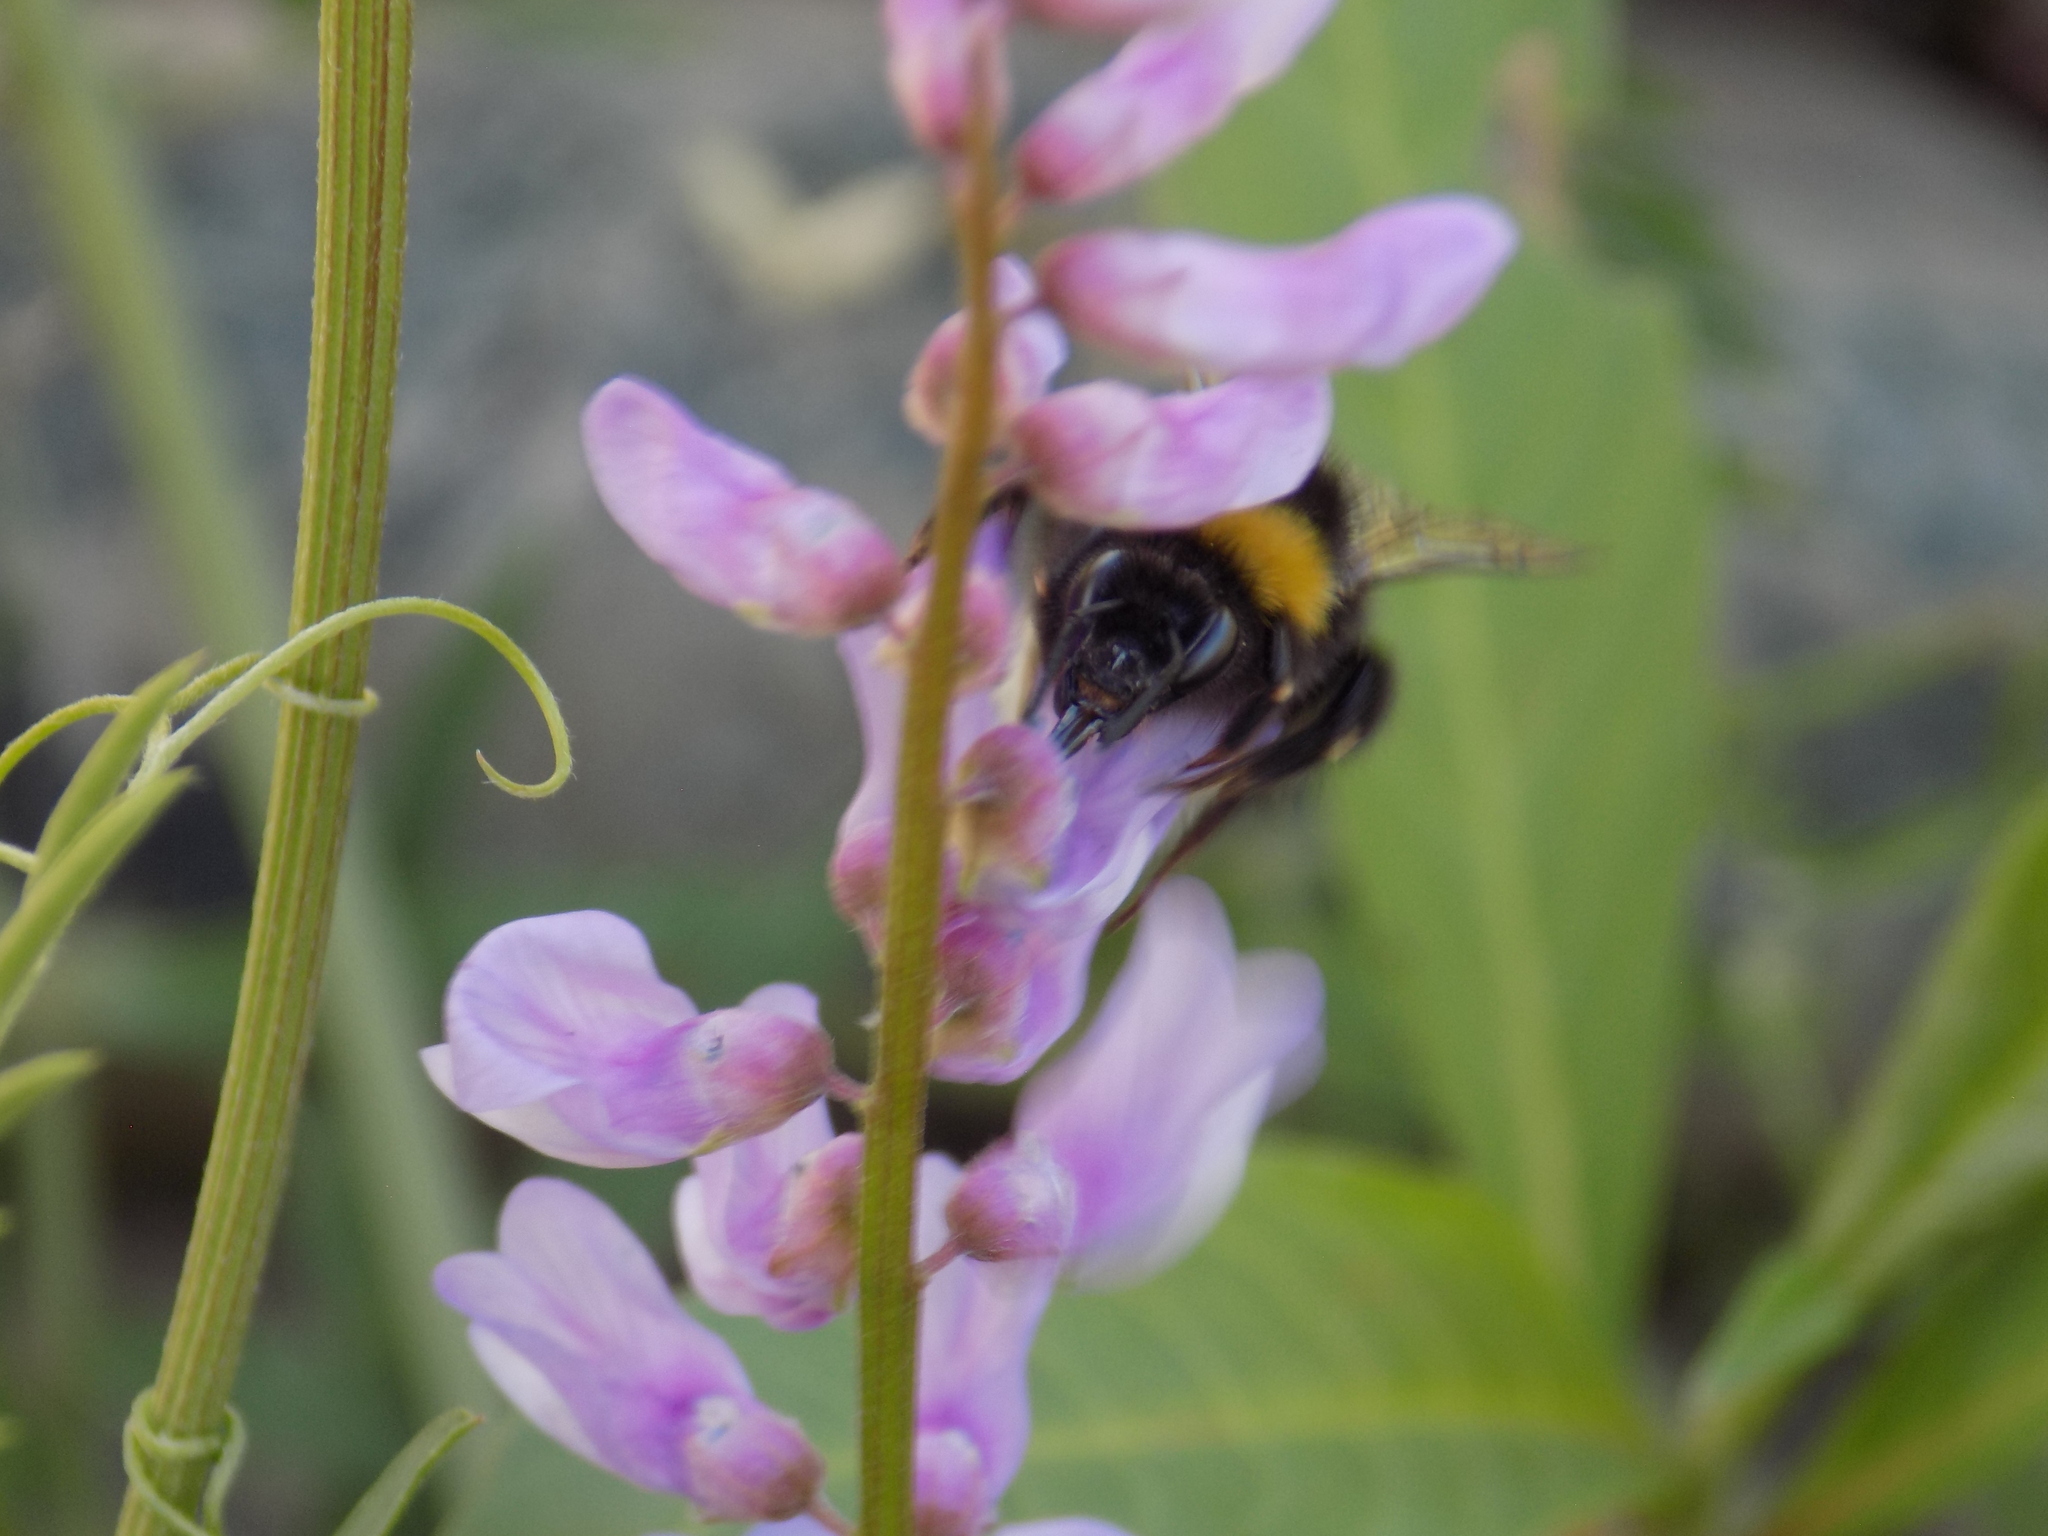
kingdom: Animalia
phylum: Arthropoda
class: Insecta
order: Hymenoptera
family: Apidae
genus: Bombus
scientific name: Bombus
